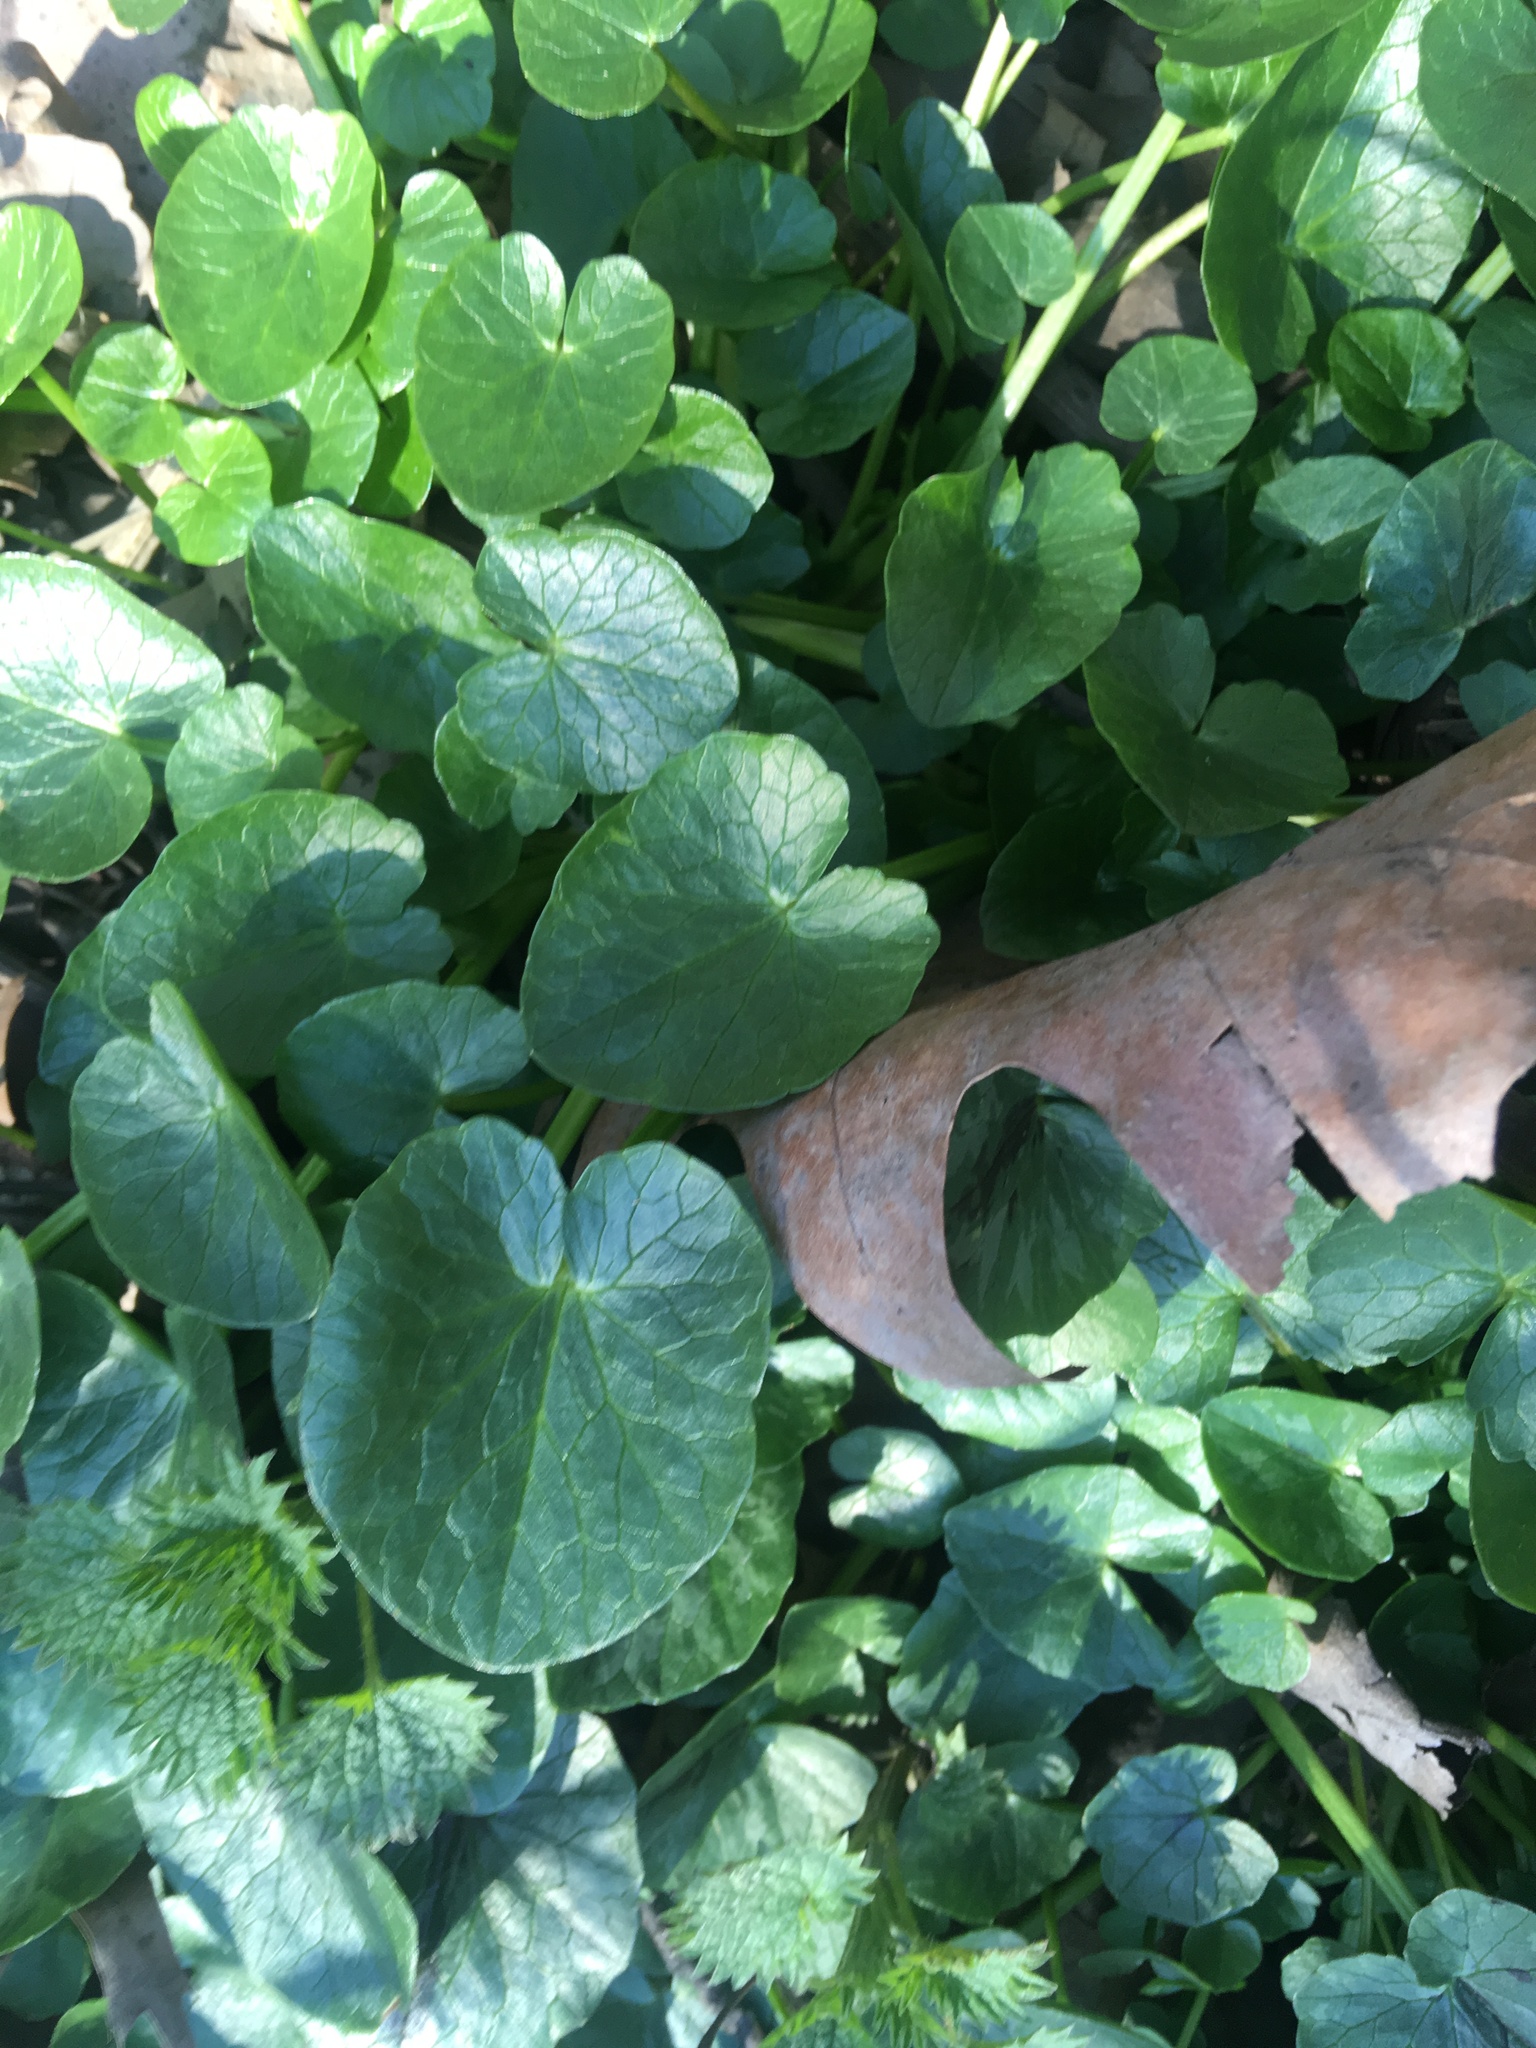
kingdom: Plantae
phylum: Tracheophyta
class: Magnoliopsida
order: Ranunculales
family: Ranunculaceae
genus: Ficaria
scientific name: Ficaria verna
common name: Lesser celandine
